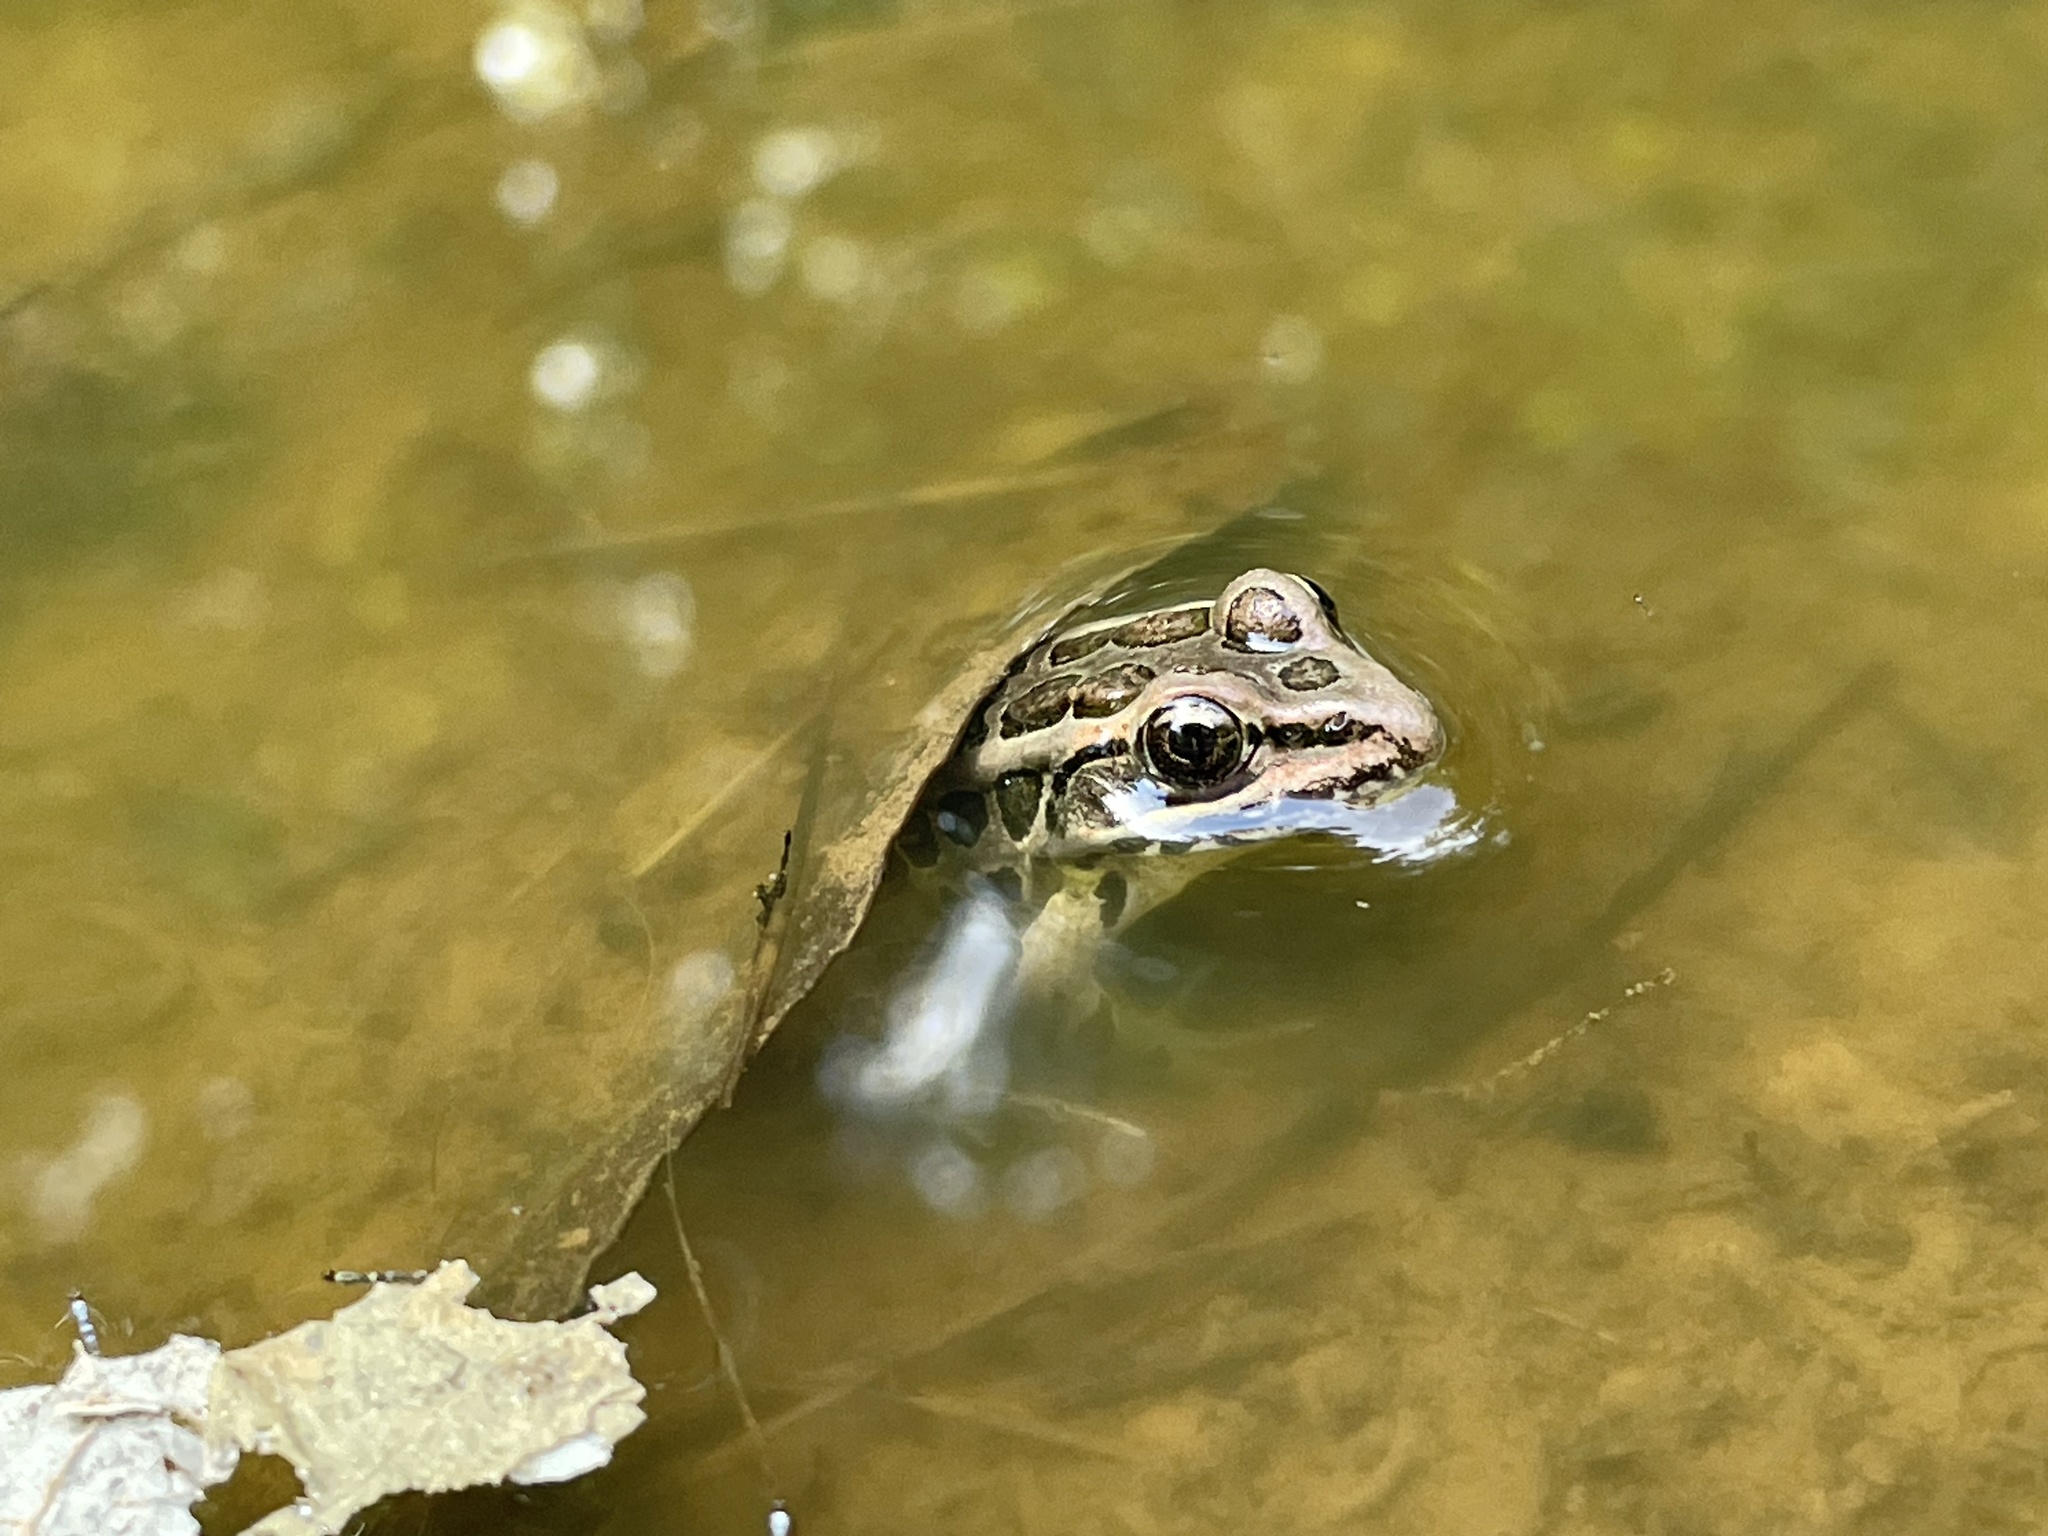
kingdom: Animalia
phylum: Chordata
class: Amphibia
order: Anura
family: Ranidae
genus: Lithobates
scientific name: Lithobates palustris
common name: Pickerel frog
